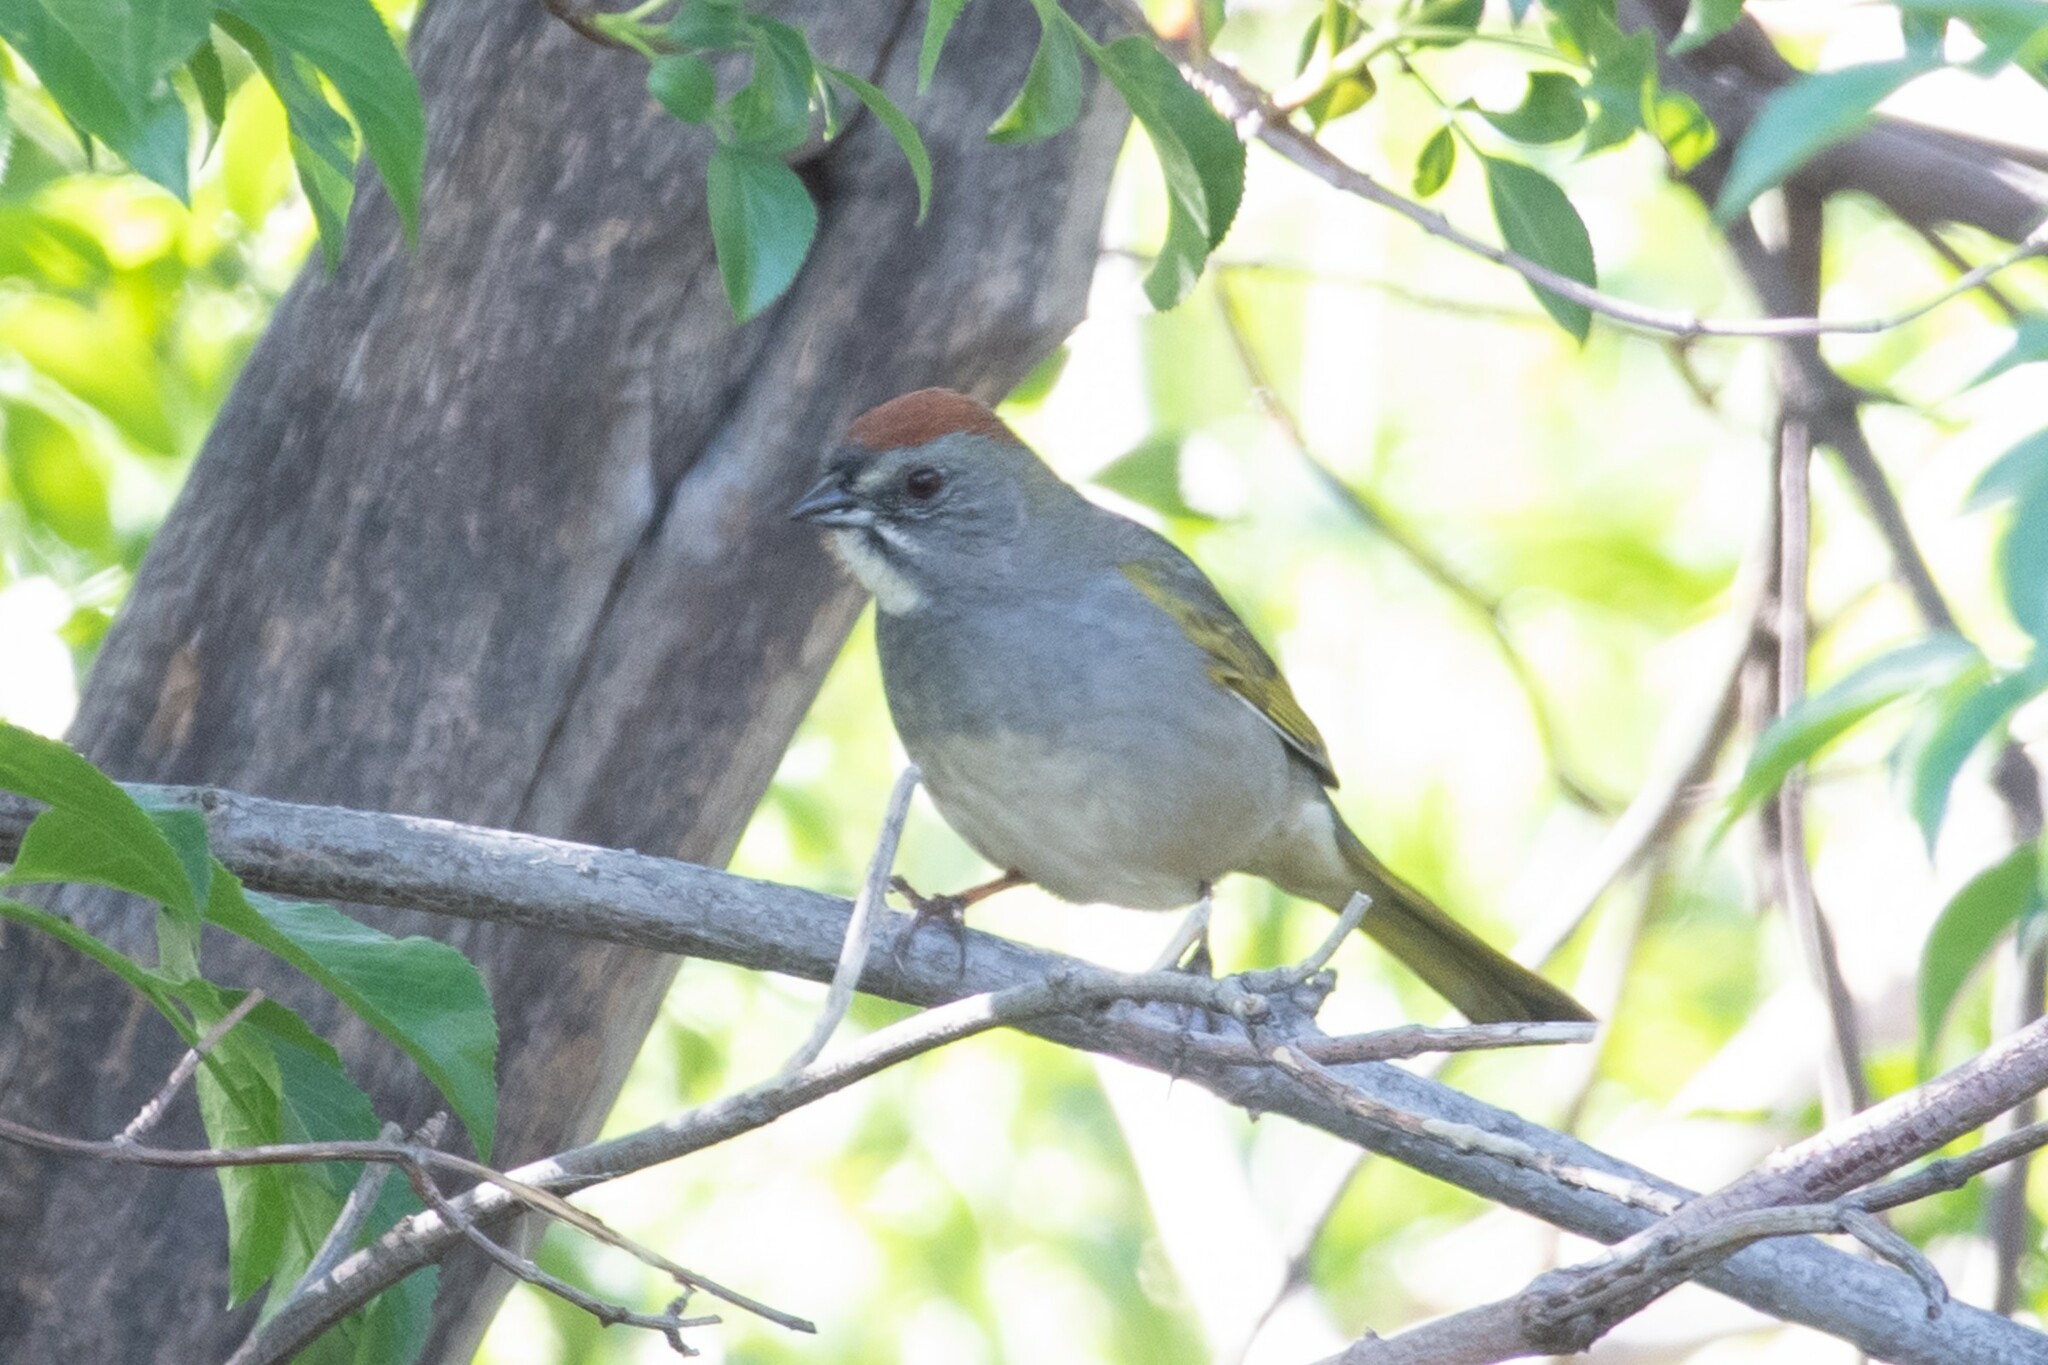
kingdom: Animalia
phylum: Chordata
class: Aves
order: Passeriformes
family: Passerellidae
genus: Pipilo
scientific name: Pipilo chlorurus
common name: Green-tailed towhee
